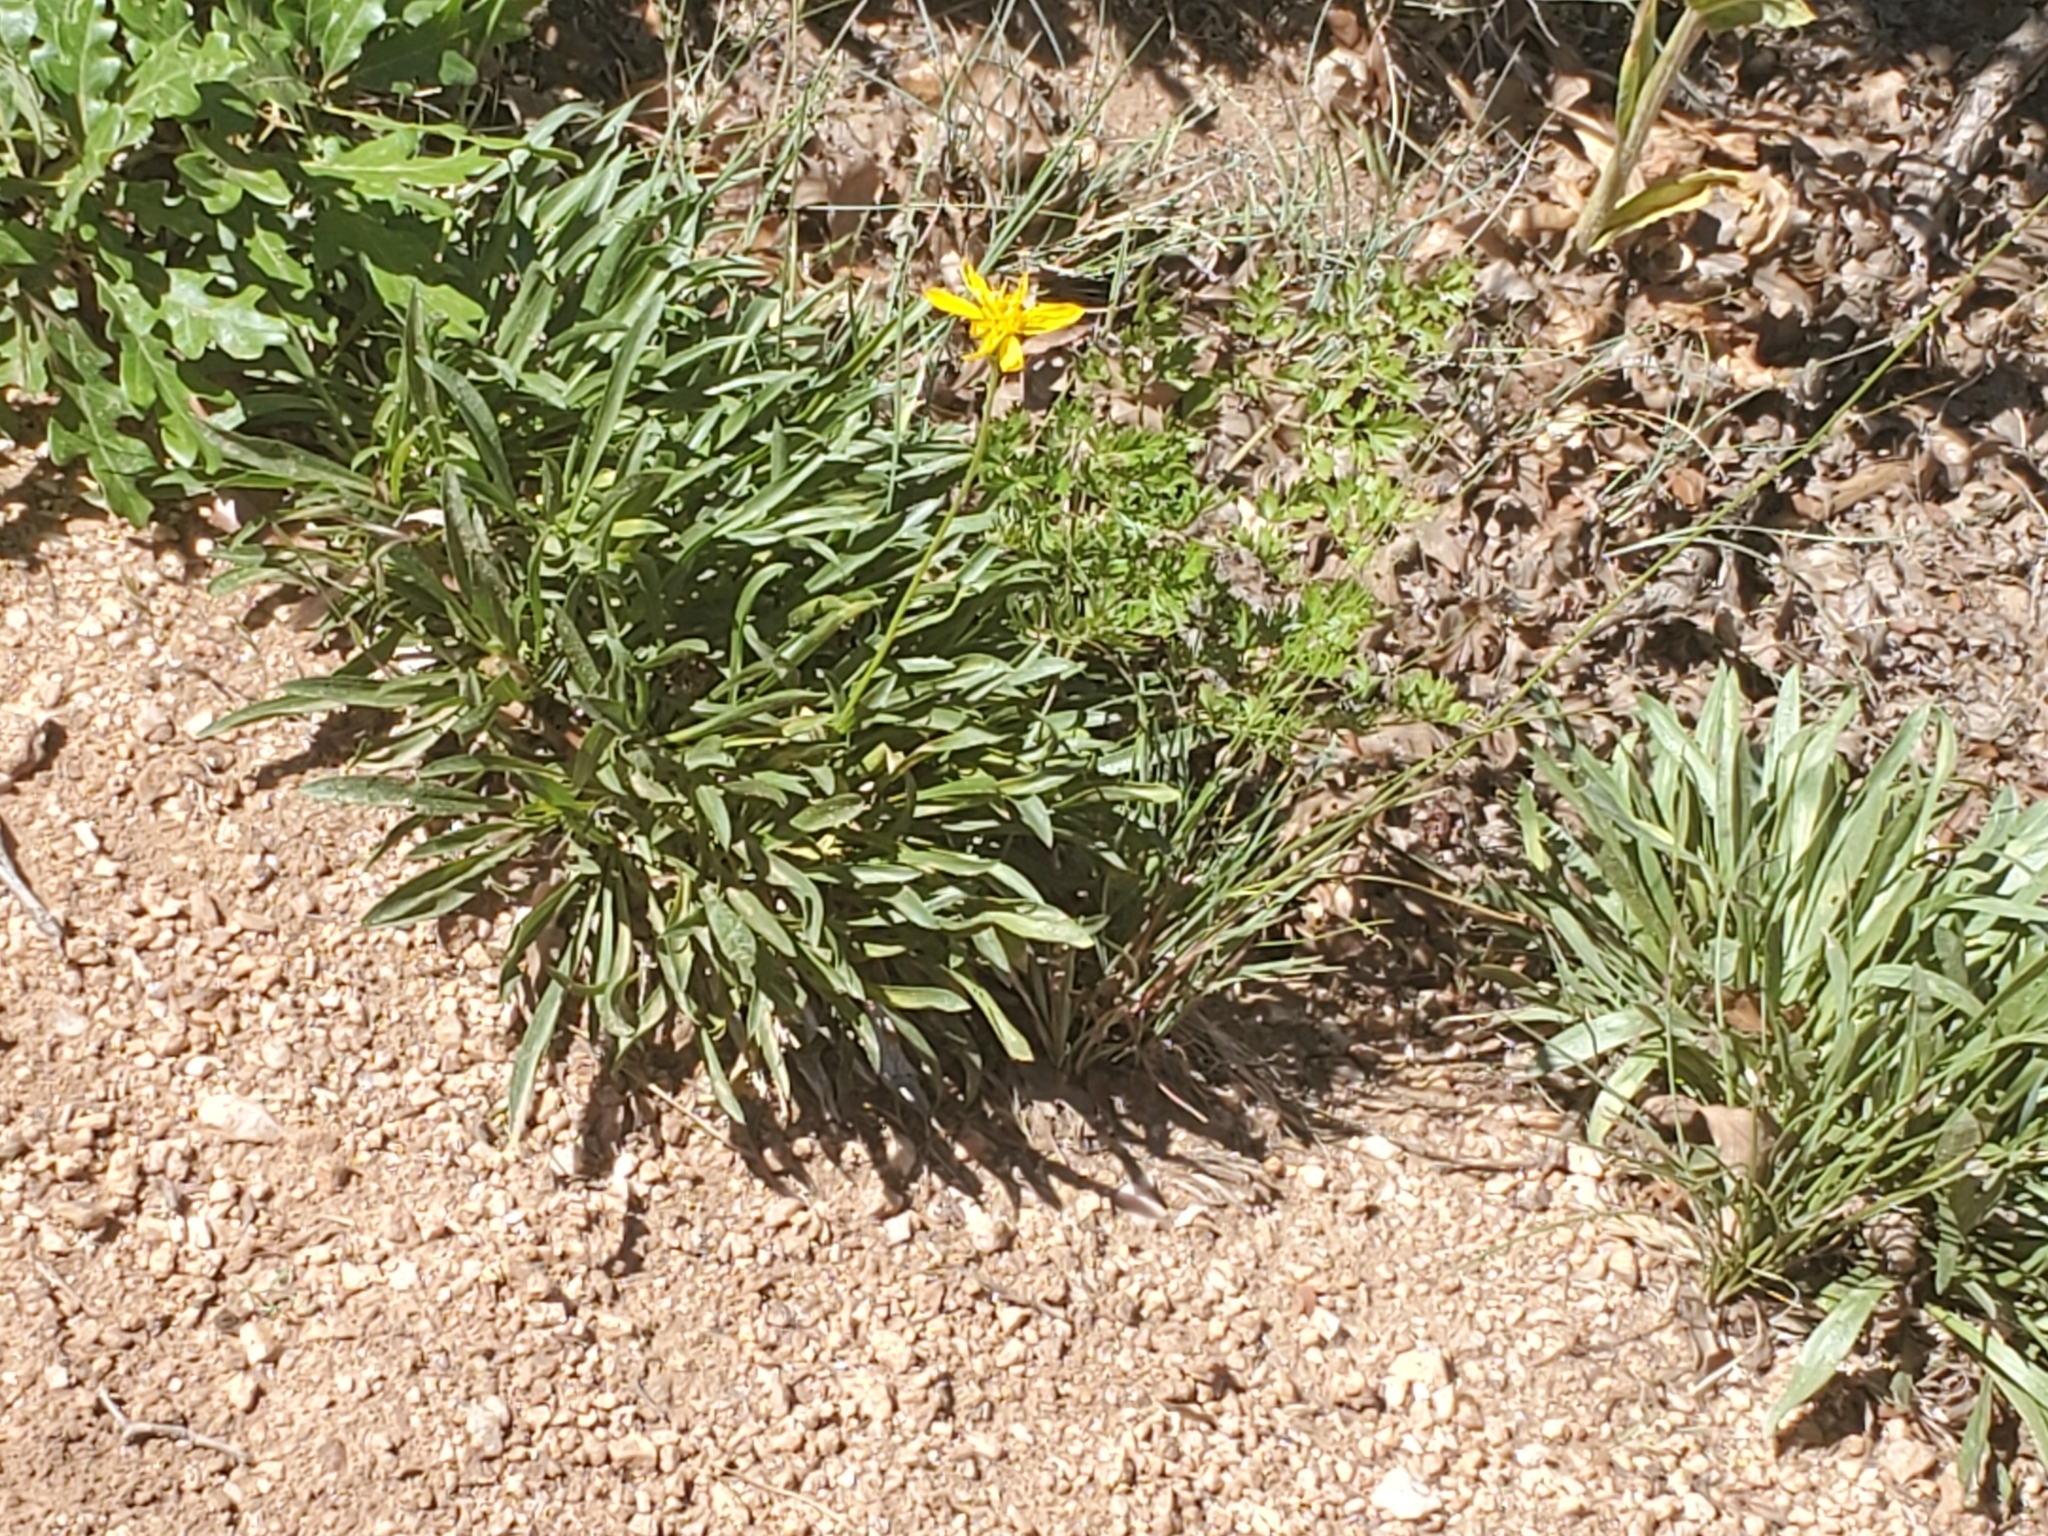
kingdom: Plantae
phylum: Tracheophyta
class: Magnoliopsida
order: Asterales
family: Asteraceae
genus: Stenotus
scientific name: Stenotus armerioides
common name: Thrifty goldenweed
